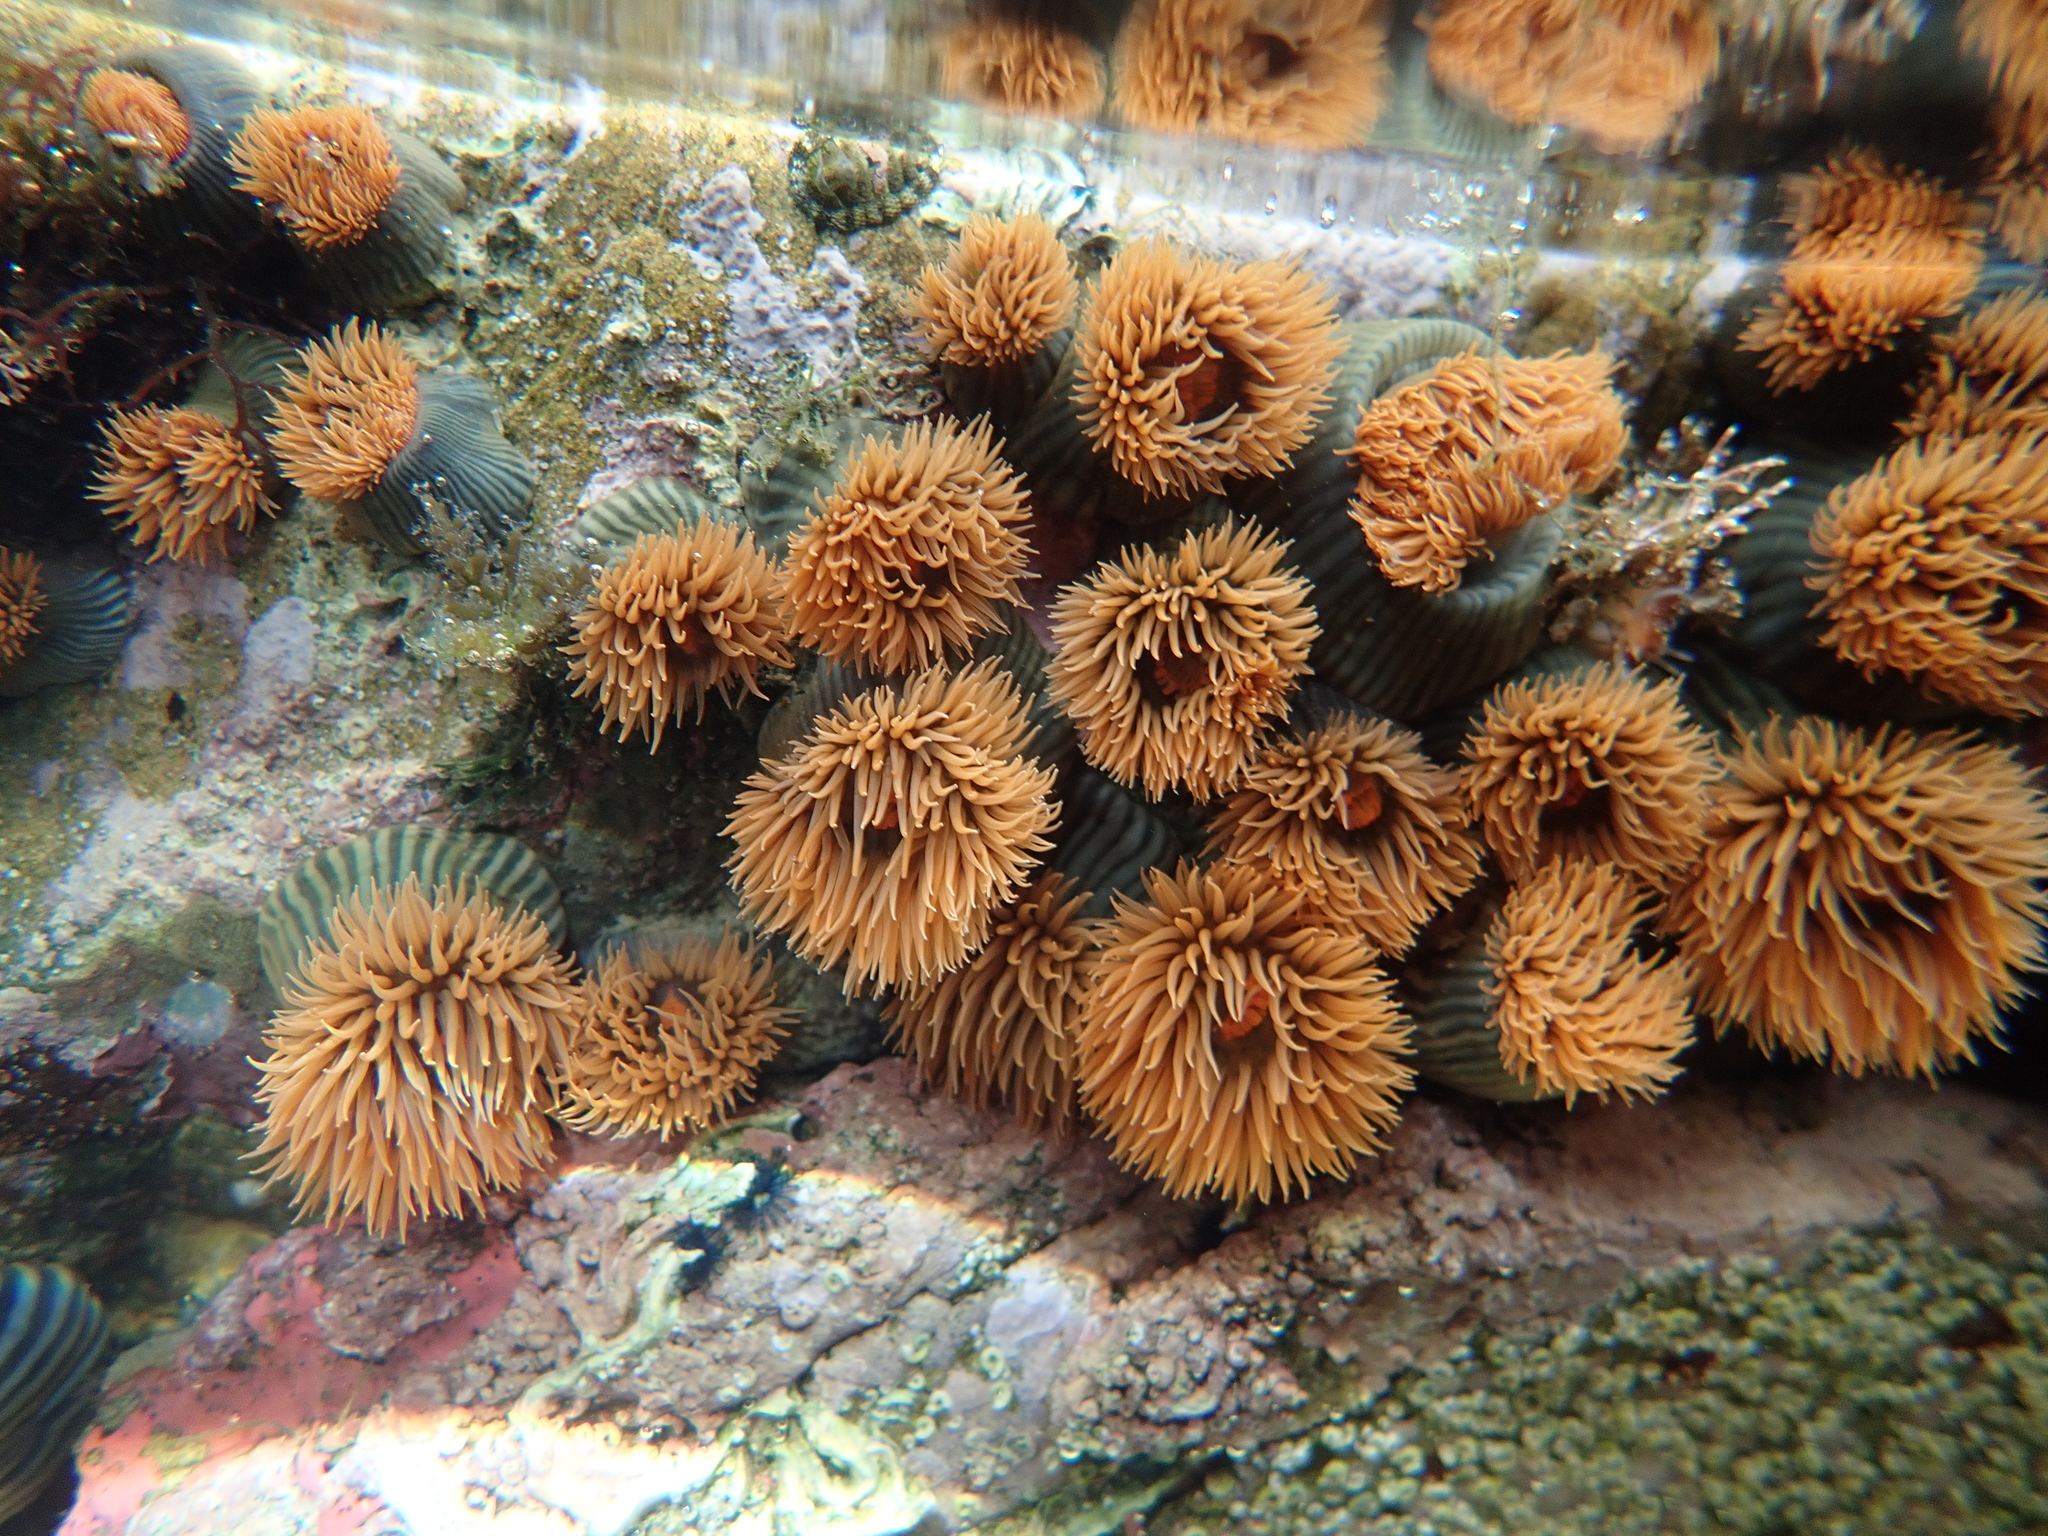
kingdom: Animalia
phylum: Cnidaria
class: Anthozoa
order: Actiniaria
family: Diadumenidae
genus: Diadumene
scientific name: Diadumene neozelanica
